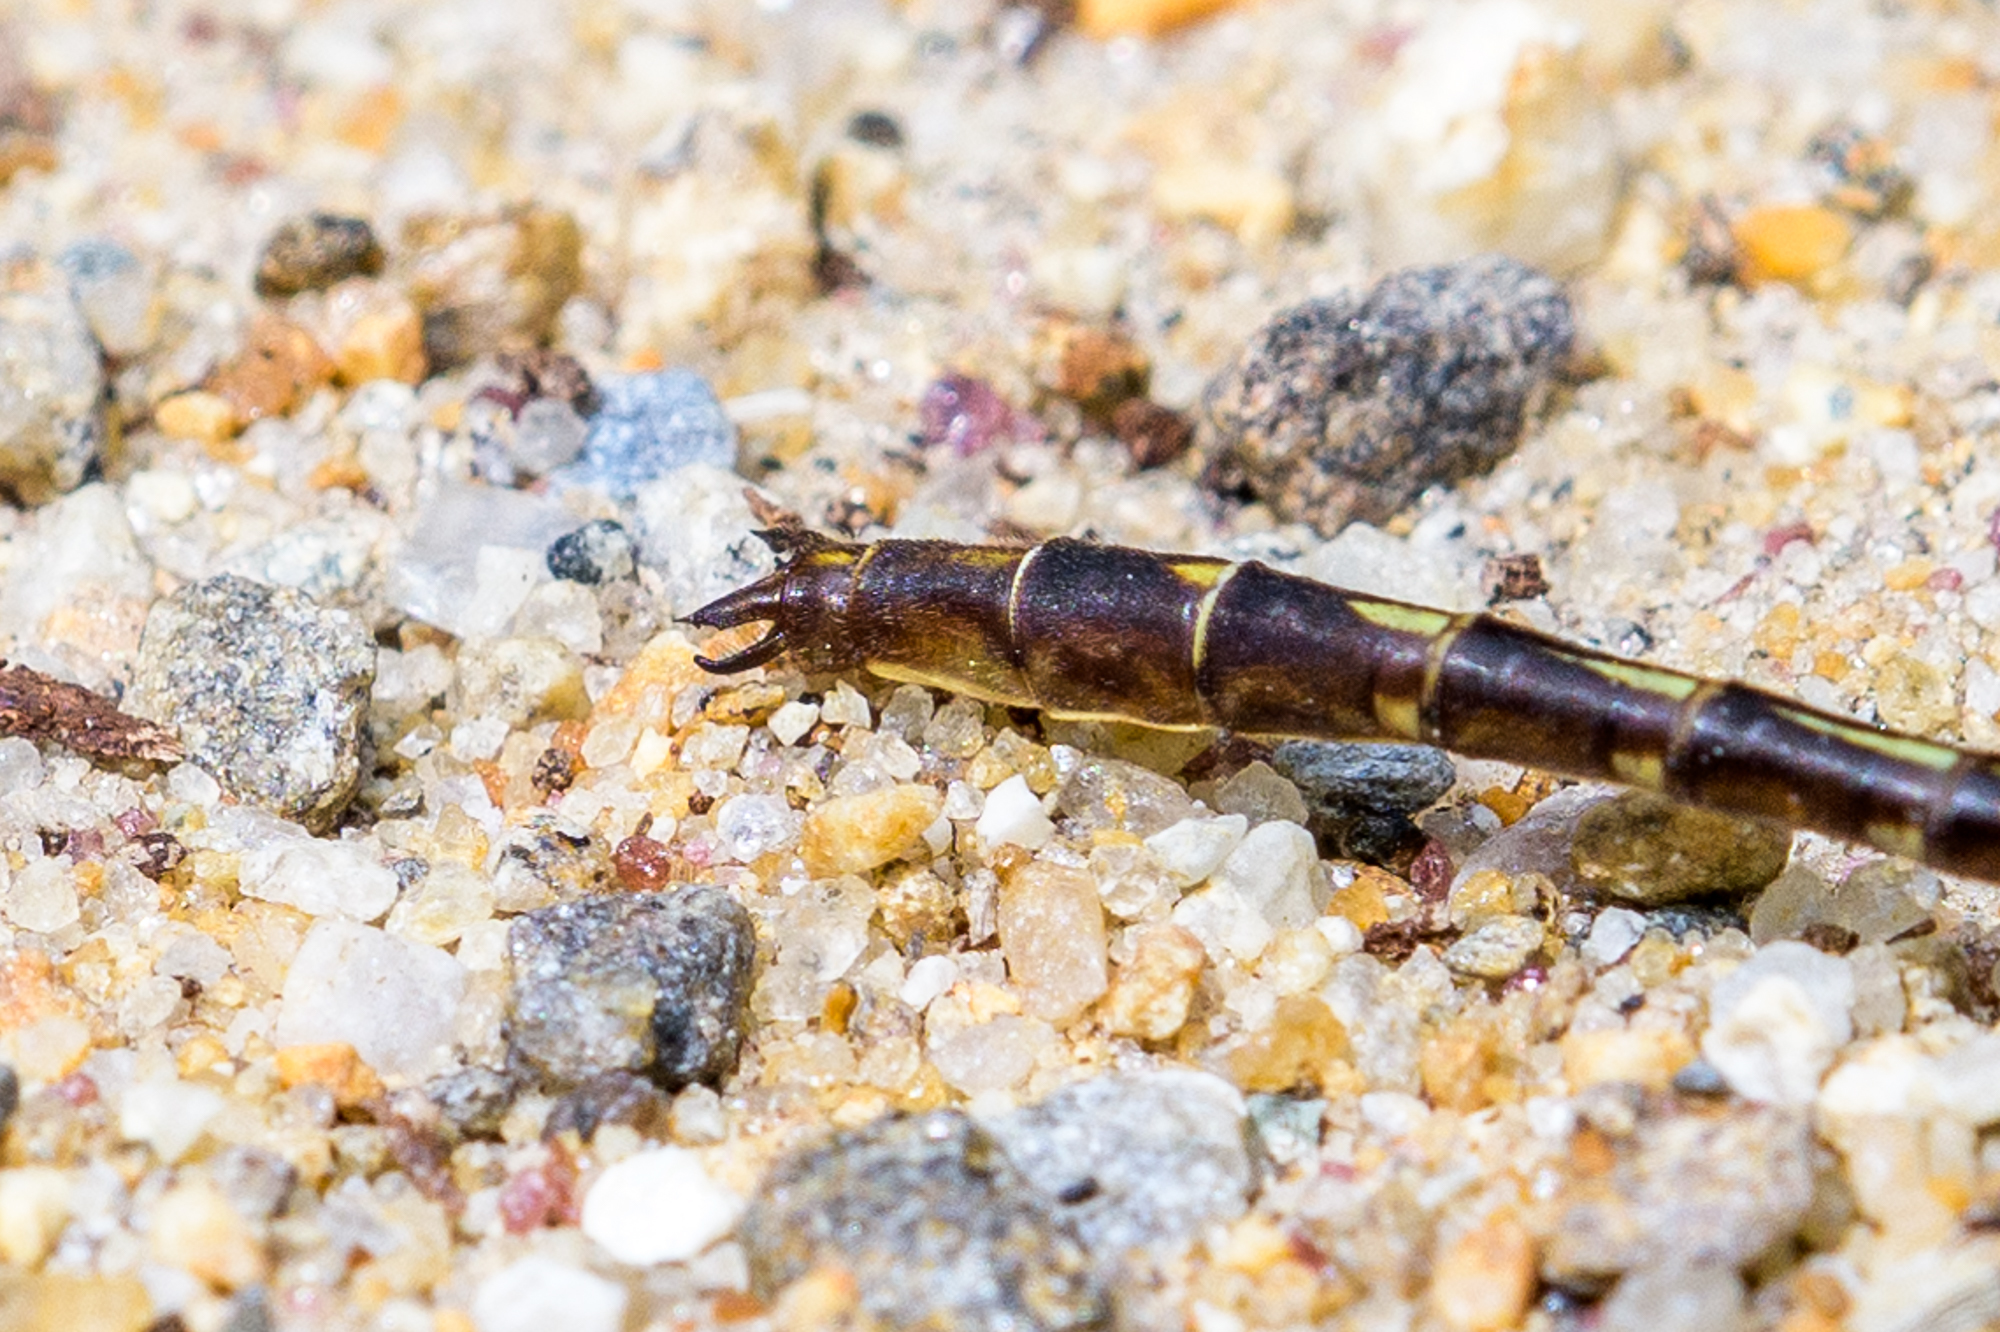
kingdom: Animalia
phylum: Arthropoda
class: Insecta
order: Odonata
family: Gomphidae
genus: Phanogomphus
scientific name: Phanogomphus lividus
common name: Ashy clubtail
